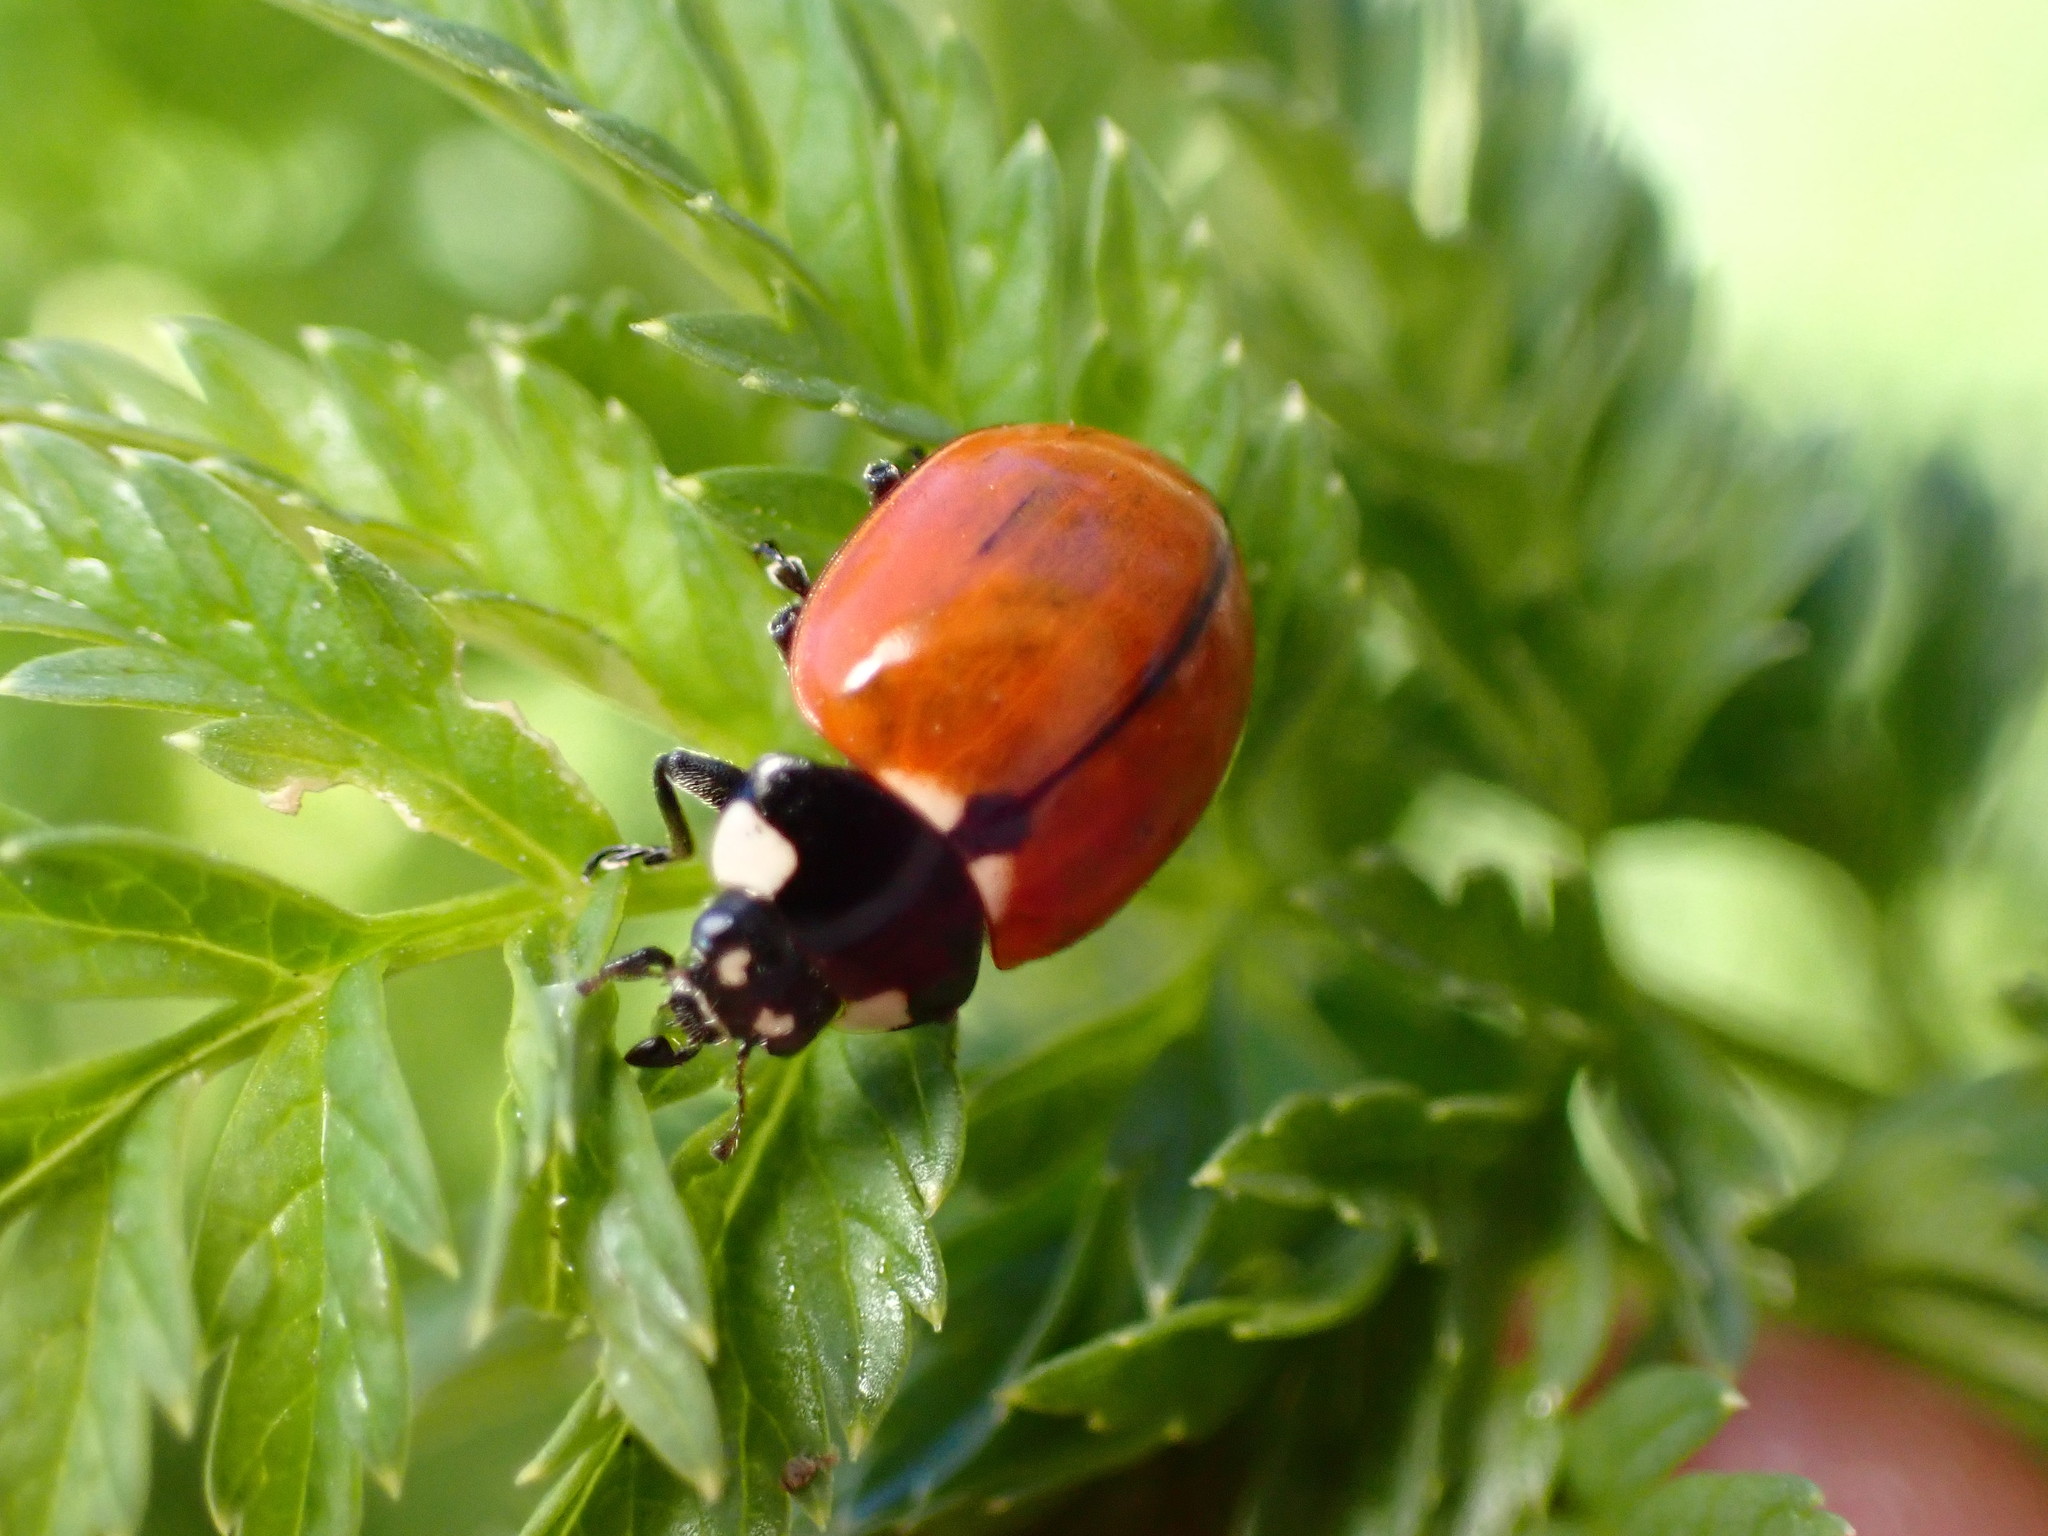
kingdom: Animalia
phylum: Arthropoda
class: Insecta
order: Coleoptera
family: Coccinellidae
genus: Coccinella
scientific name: Coccinella californica
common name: Lady beetle
